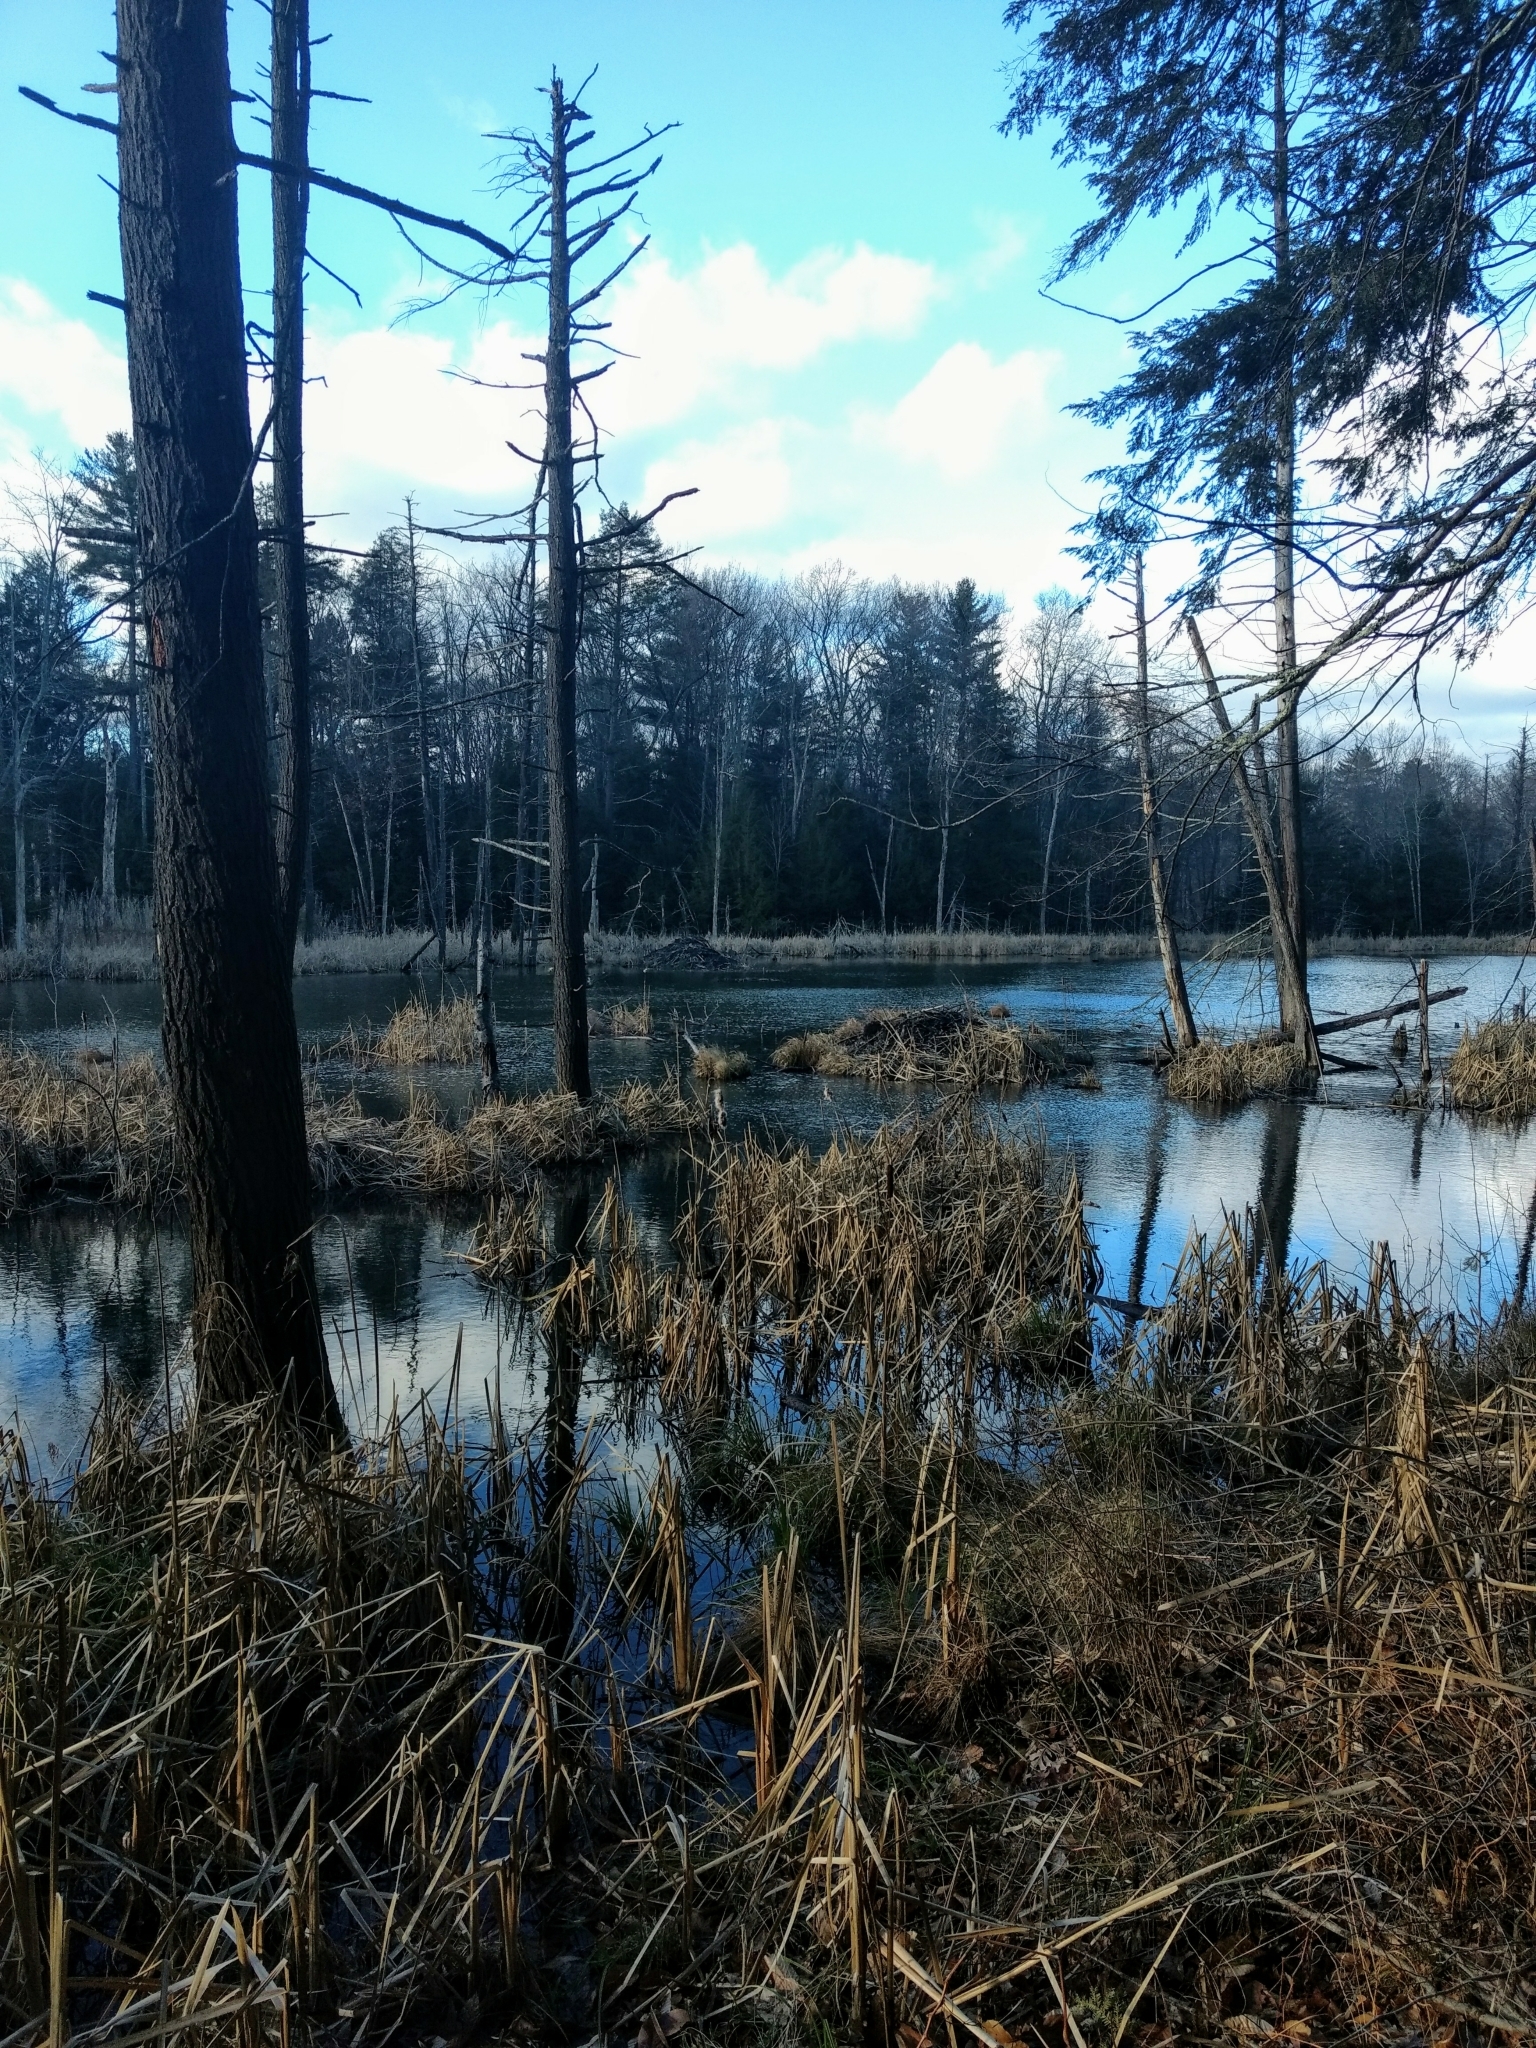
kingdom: Animalia
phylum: Chordata
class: Mammalia
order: Rodentia
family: Castoridae
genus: Castor
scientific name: Castor canadensis
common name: American beaver
